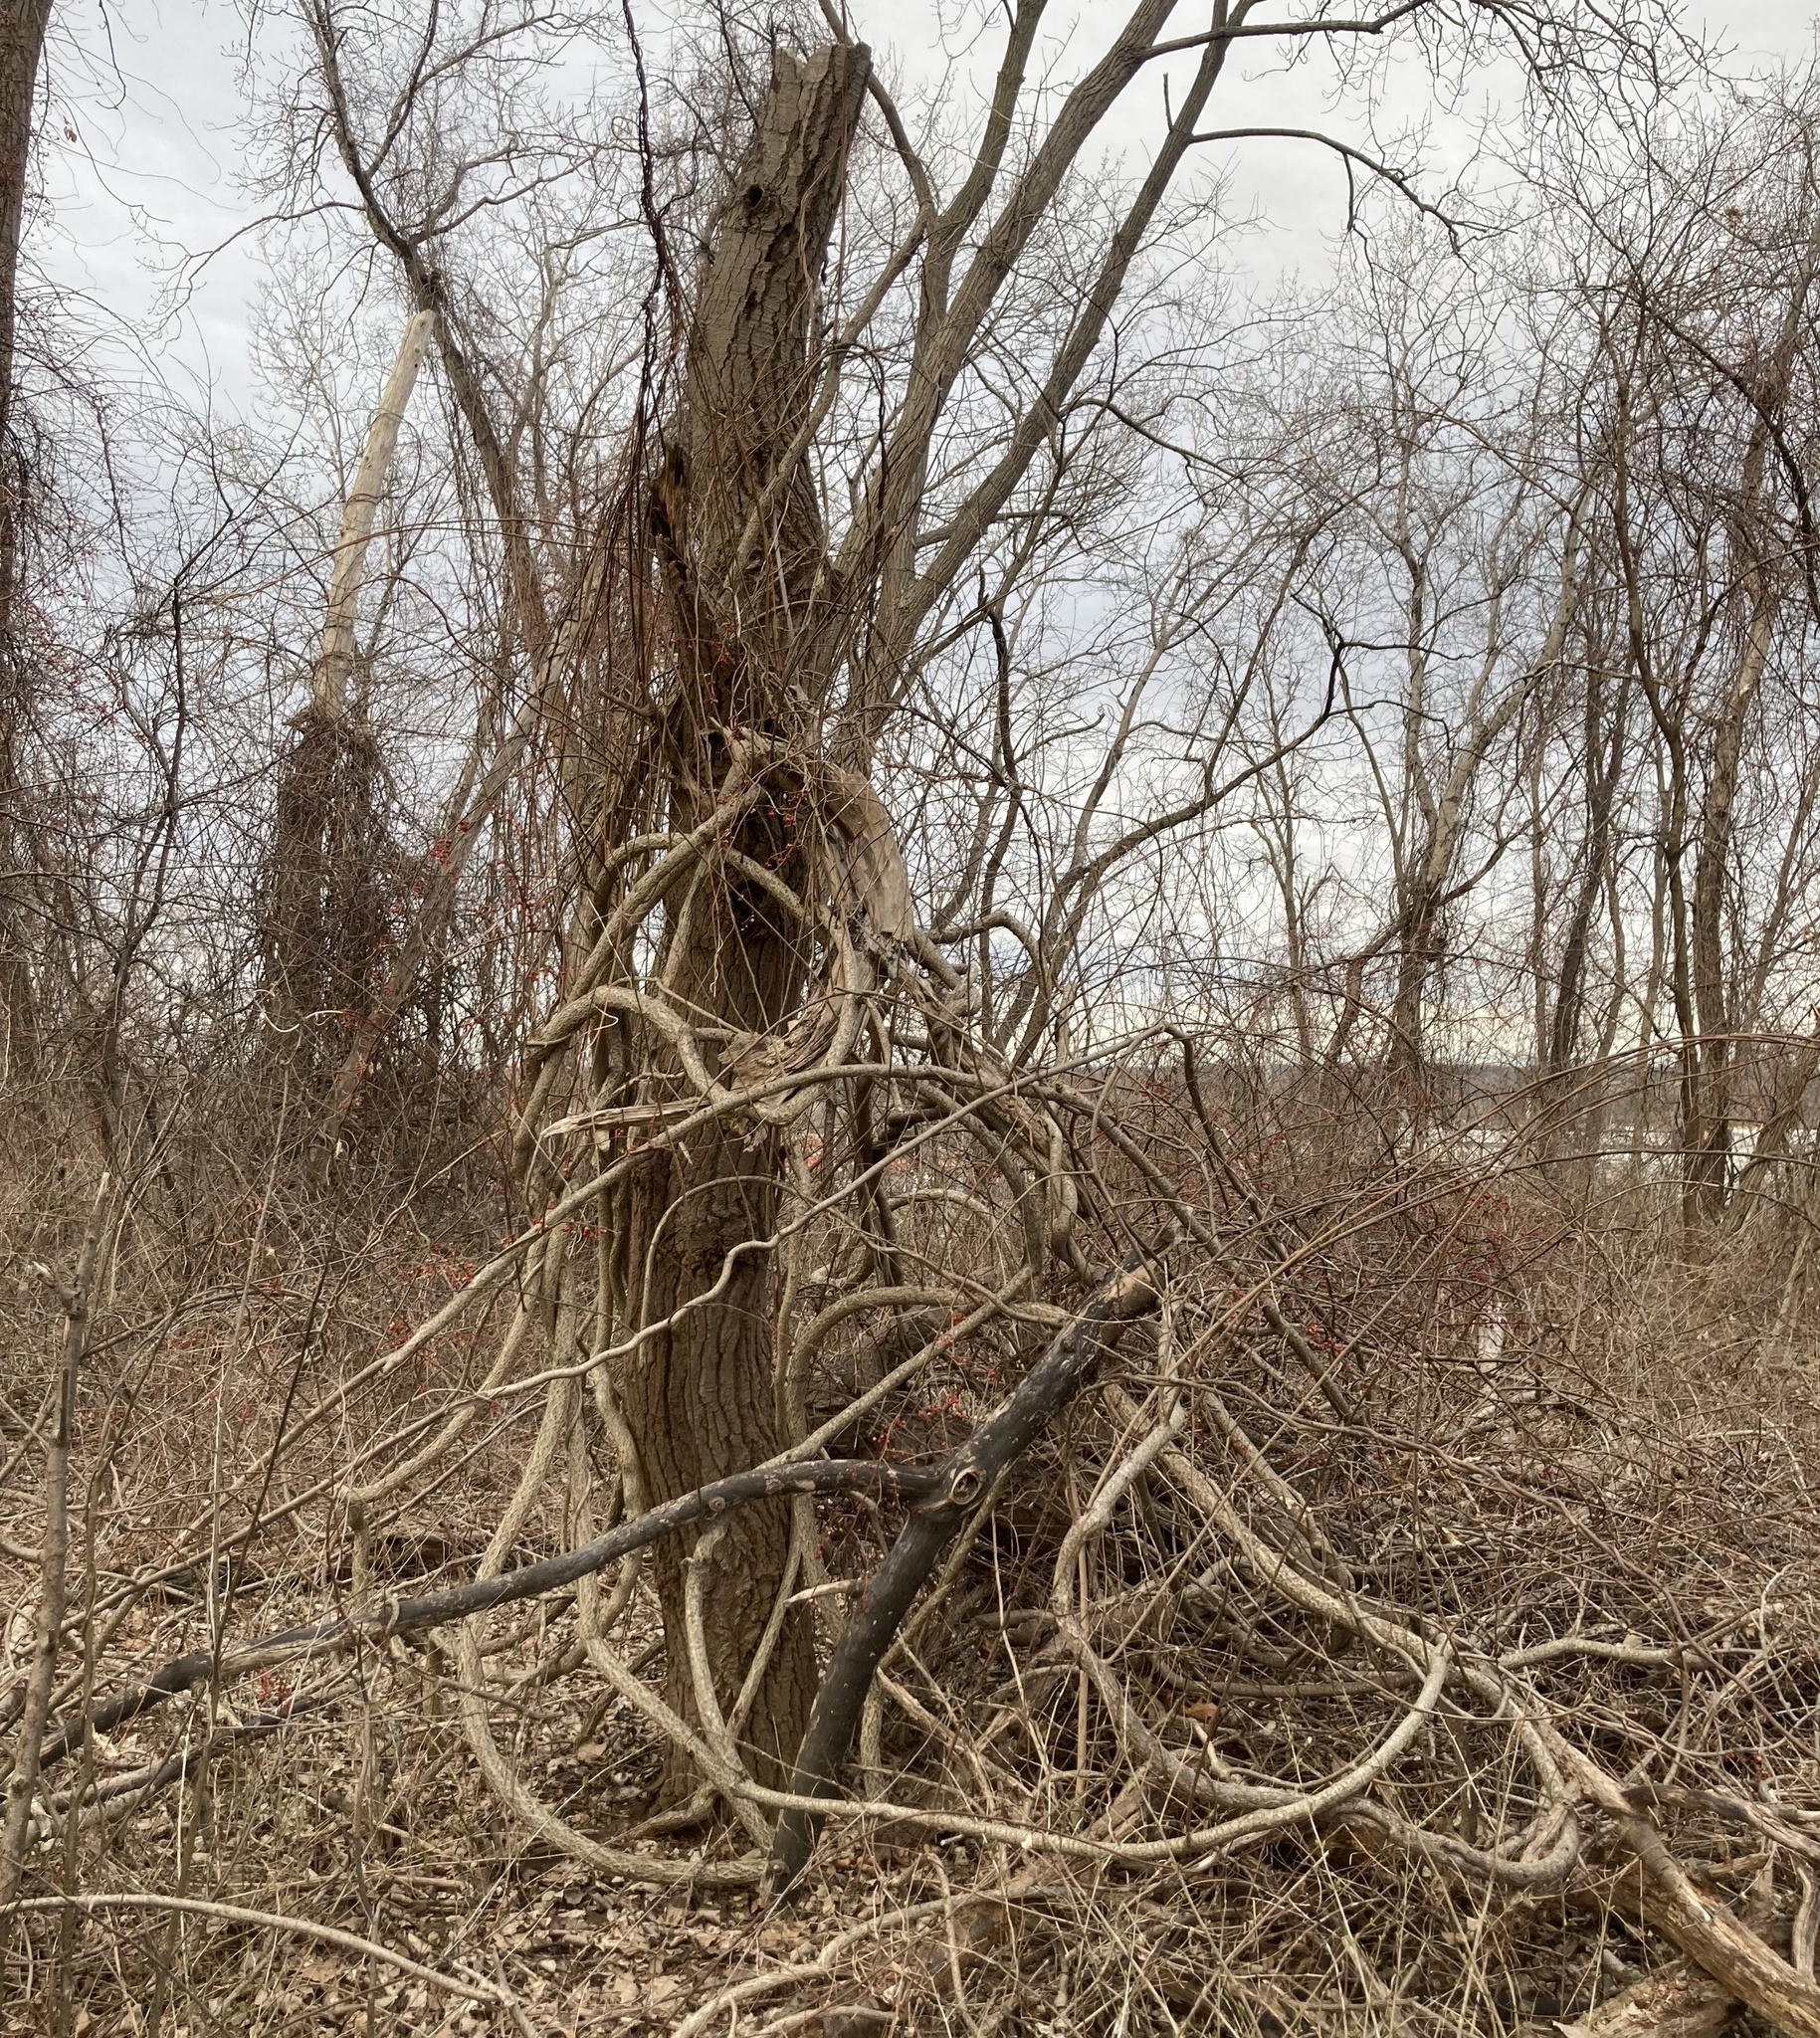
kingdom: Plantae
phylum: Tracheophyta
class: Magnoliopsida
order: Celastrales
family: Celastraceae
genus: Celastrus
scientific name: Celastrus orbiculatus
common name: Oriental bittersweet
